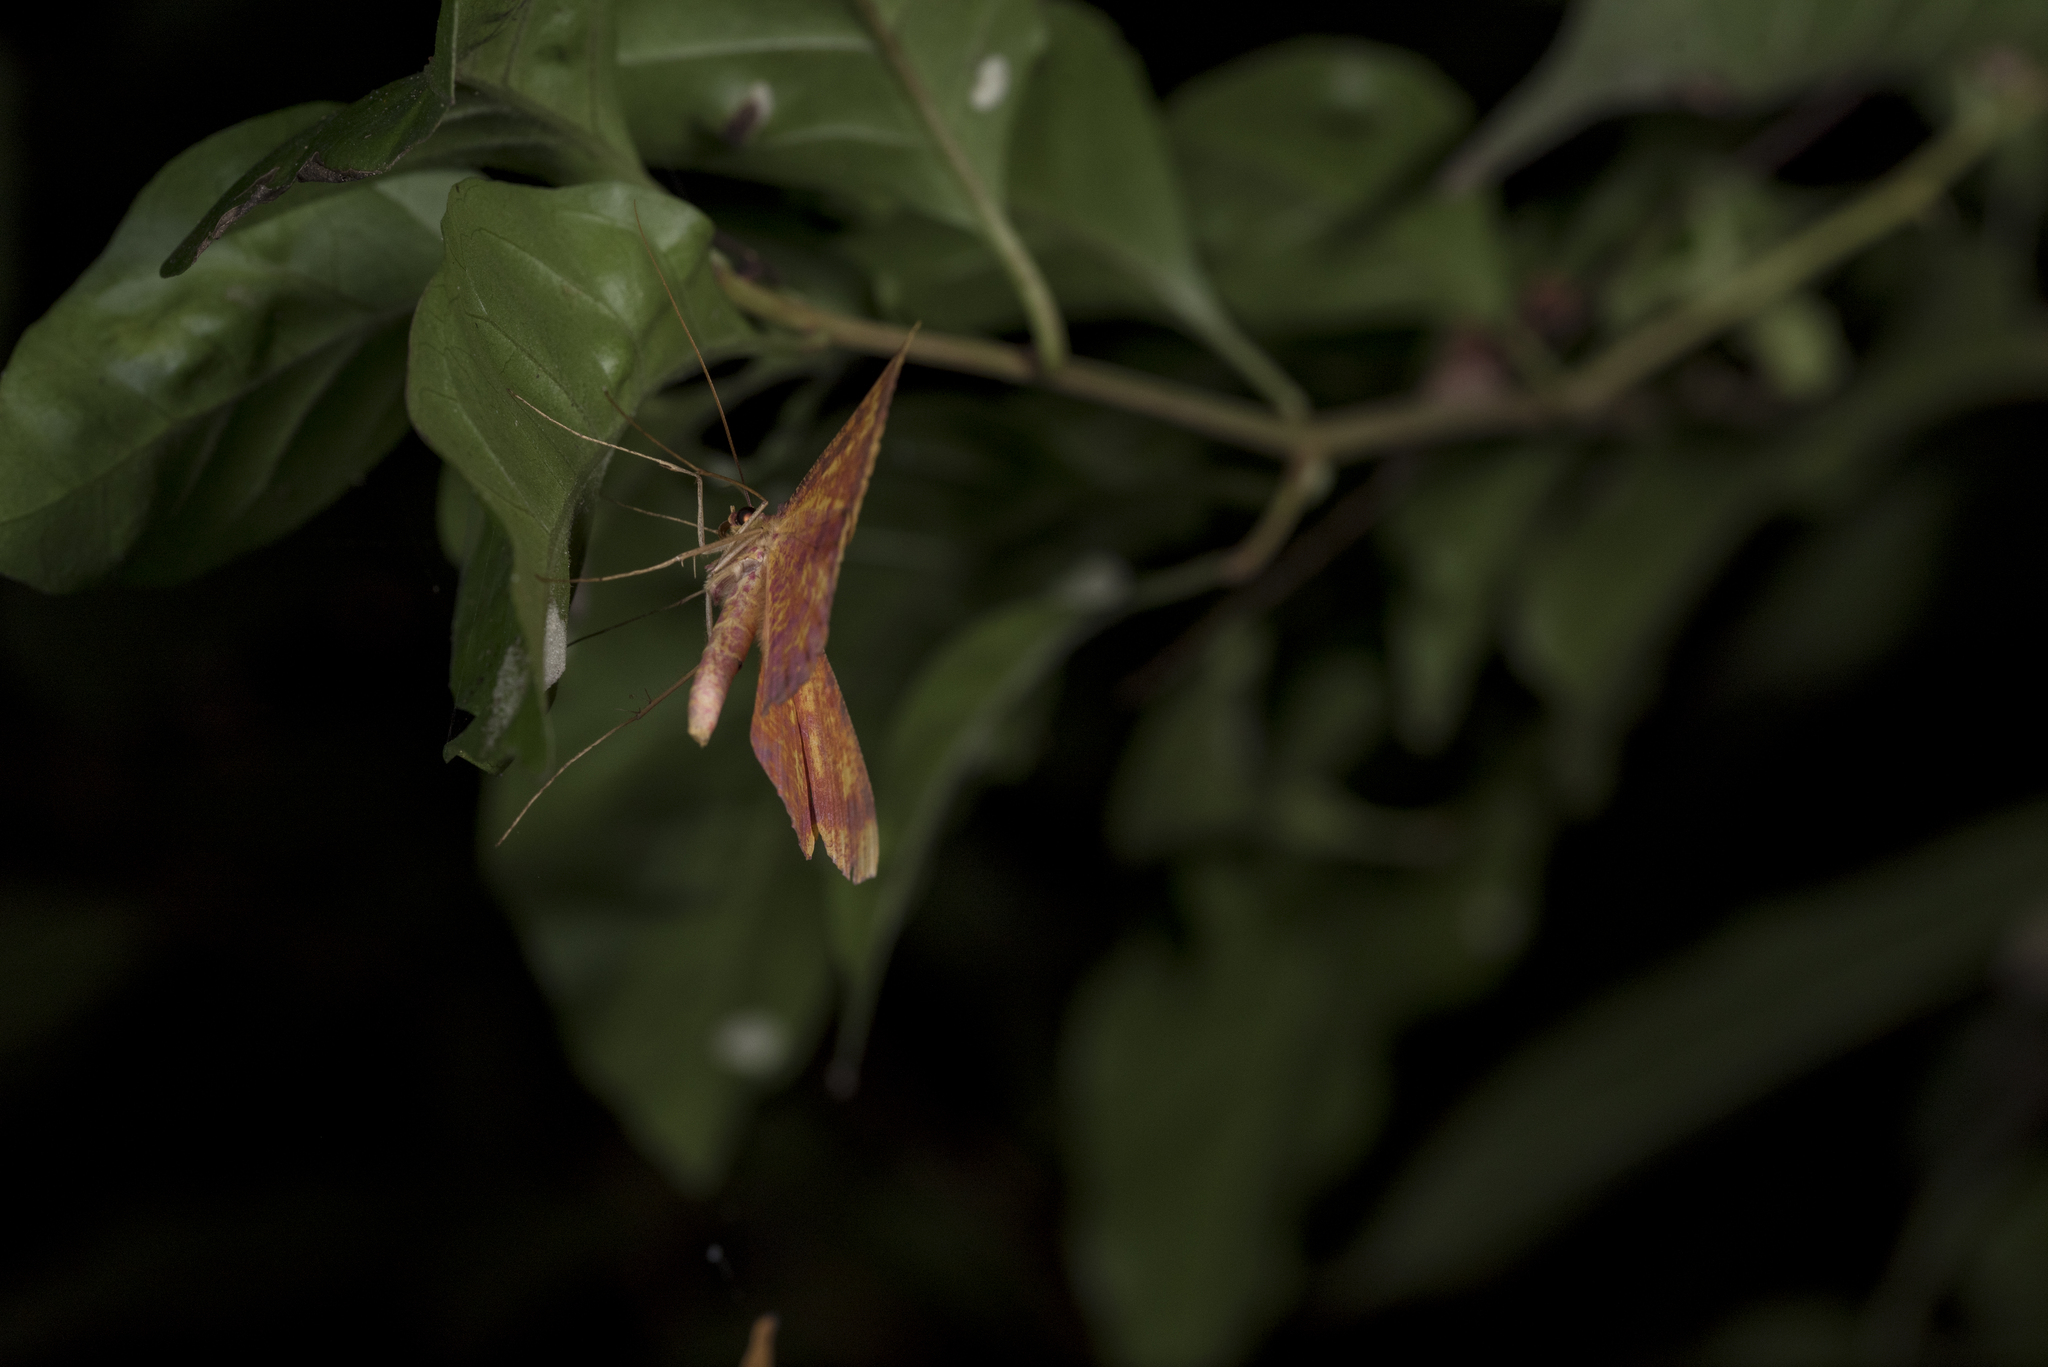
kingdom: Animalia
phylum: Arthropoda
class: Insecta
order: Lepidoptera
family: Geometridae
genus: Eumelea
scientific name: Eumelea ludovicata
